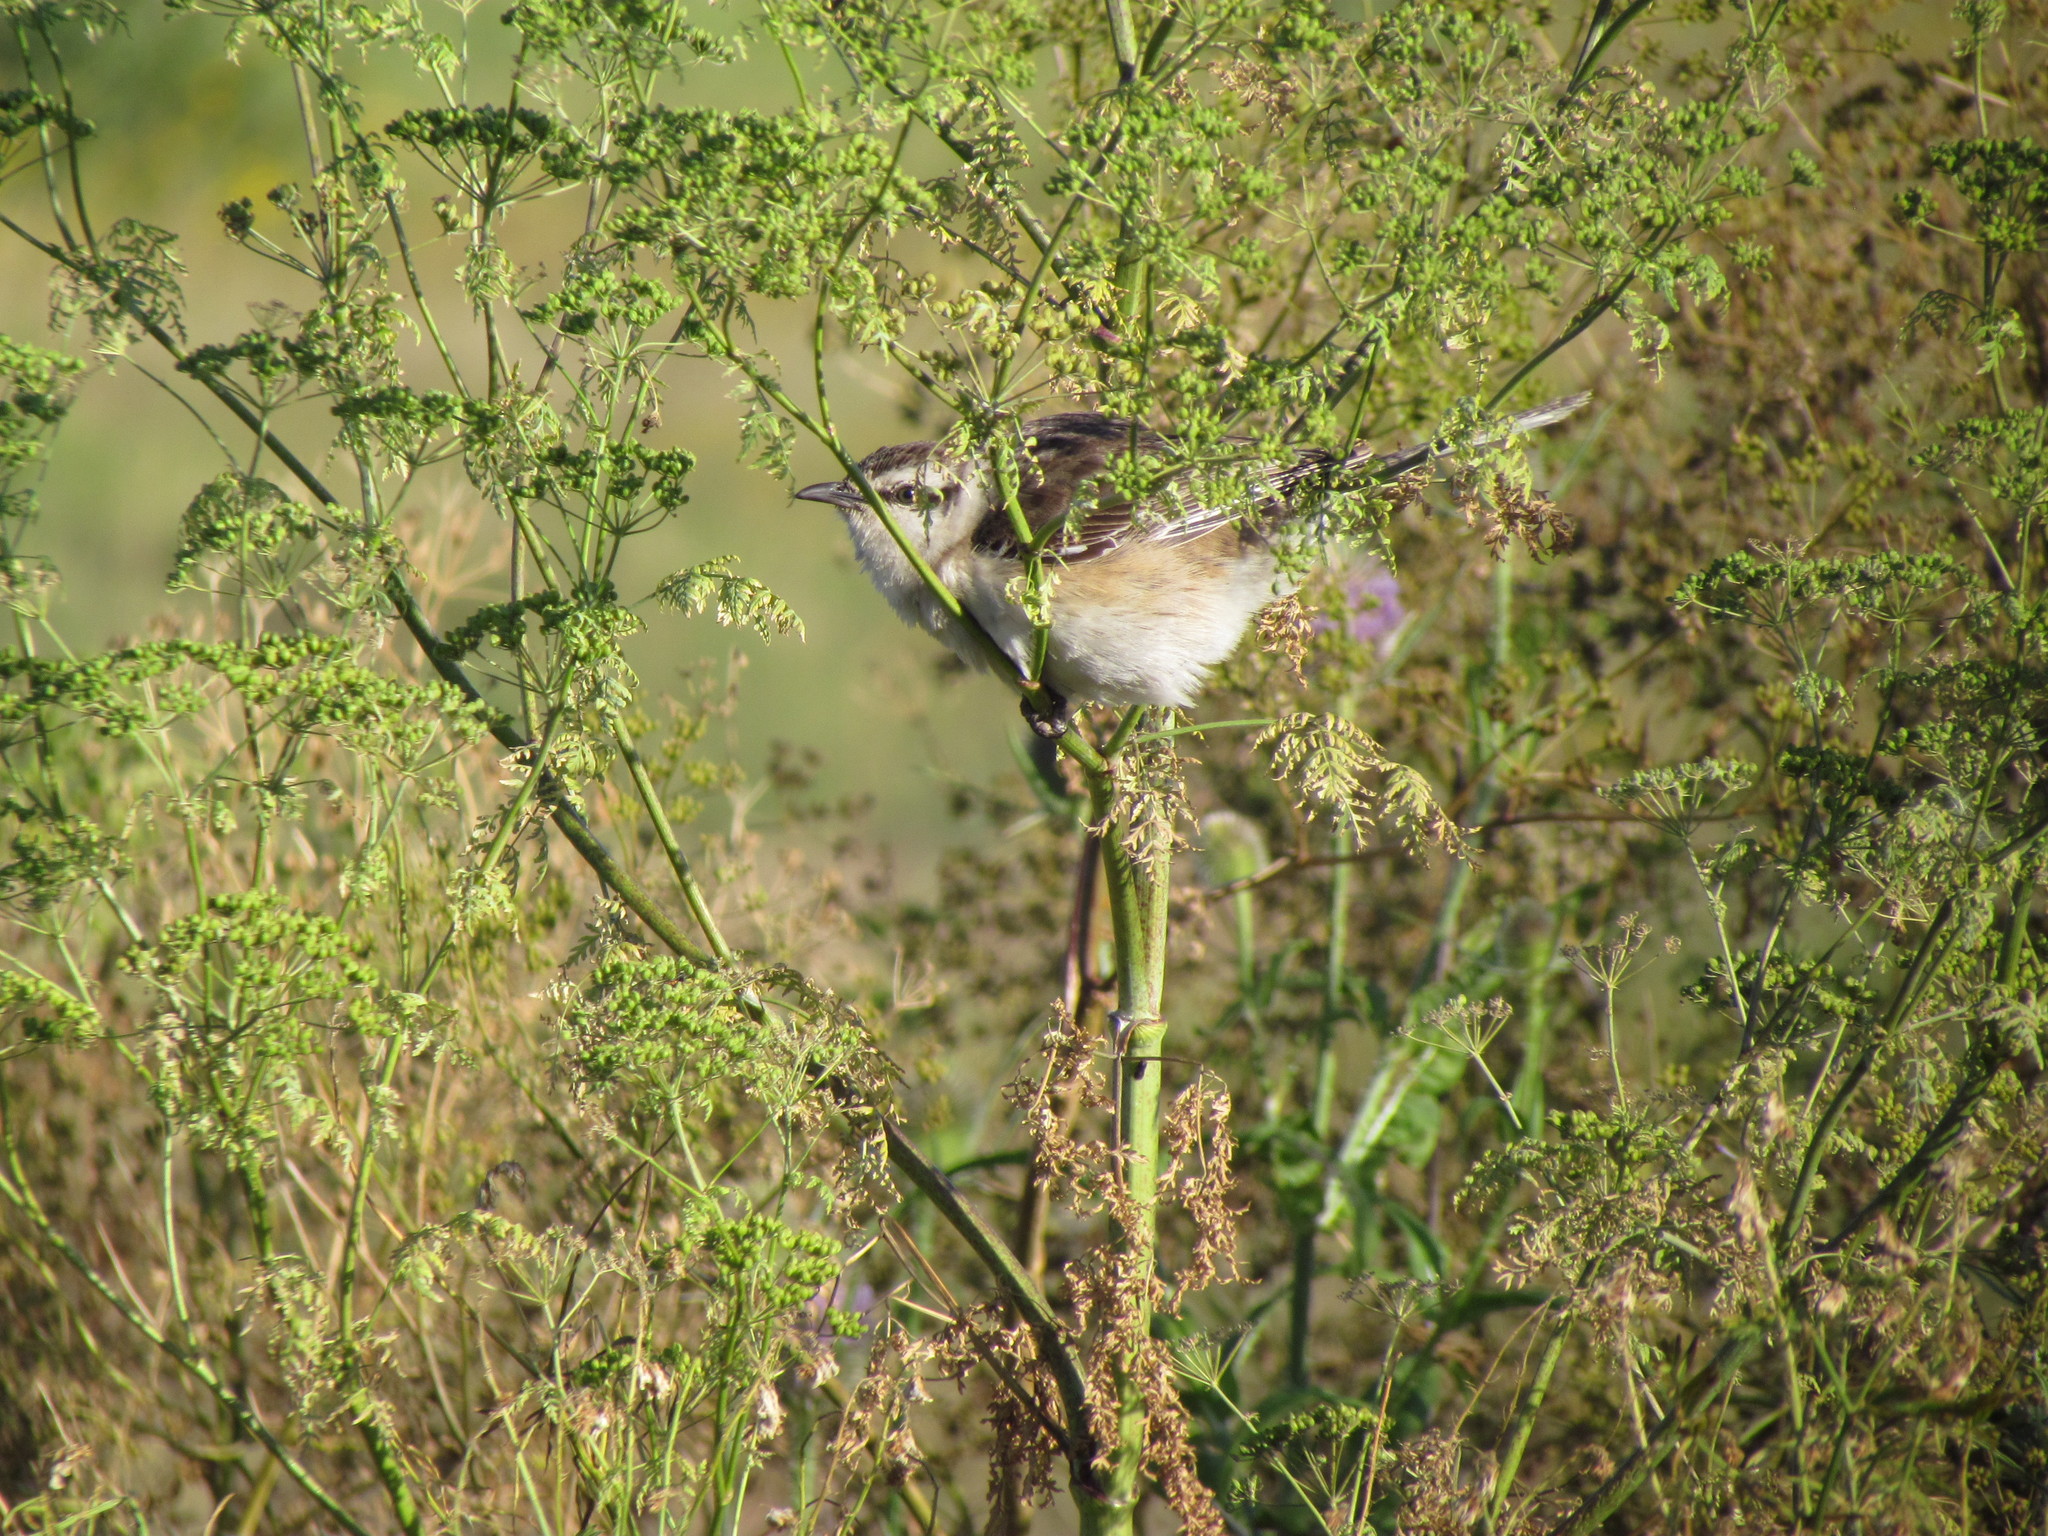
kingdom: Animalia
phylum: Chordata
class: Aves
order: Passeriformes
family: Mimidae
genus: Mimus
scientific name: Mimus saturninus
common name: Chalk-browed mockingbird
